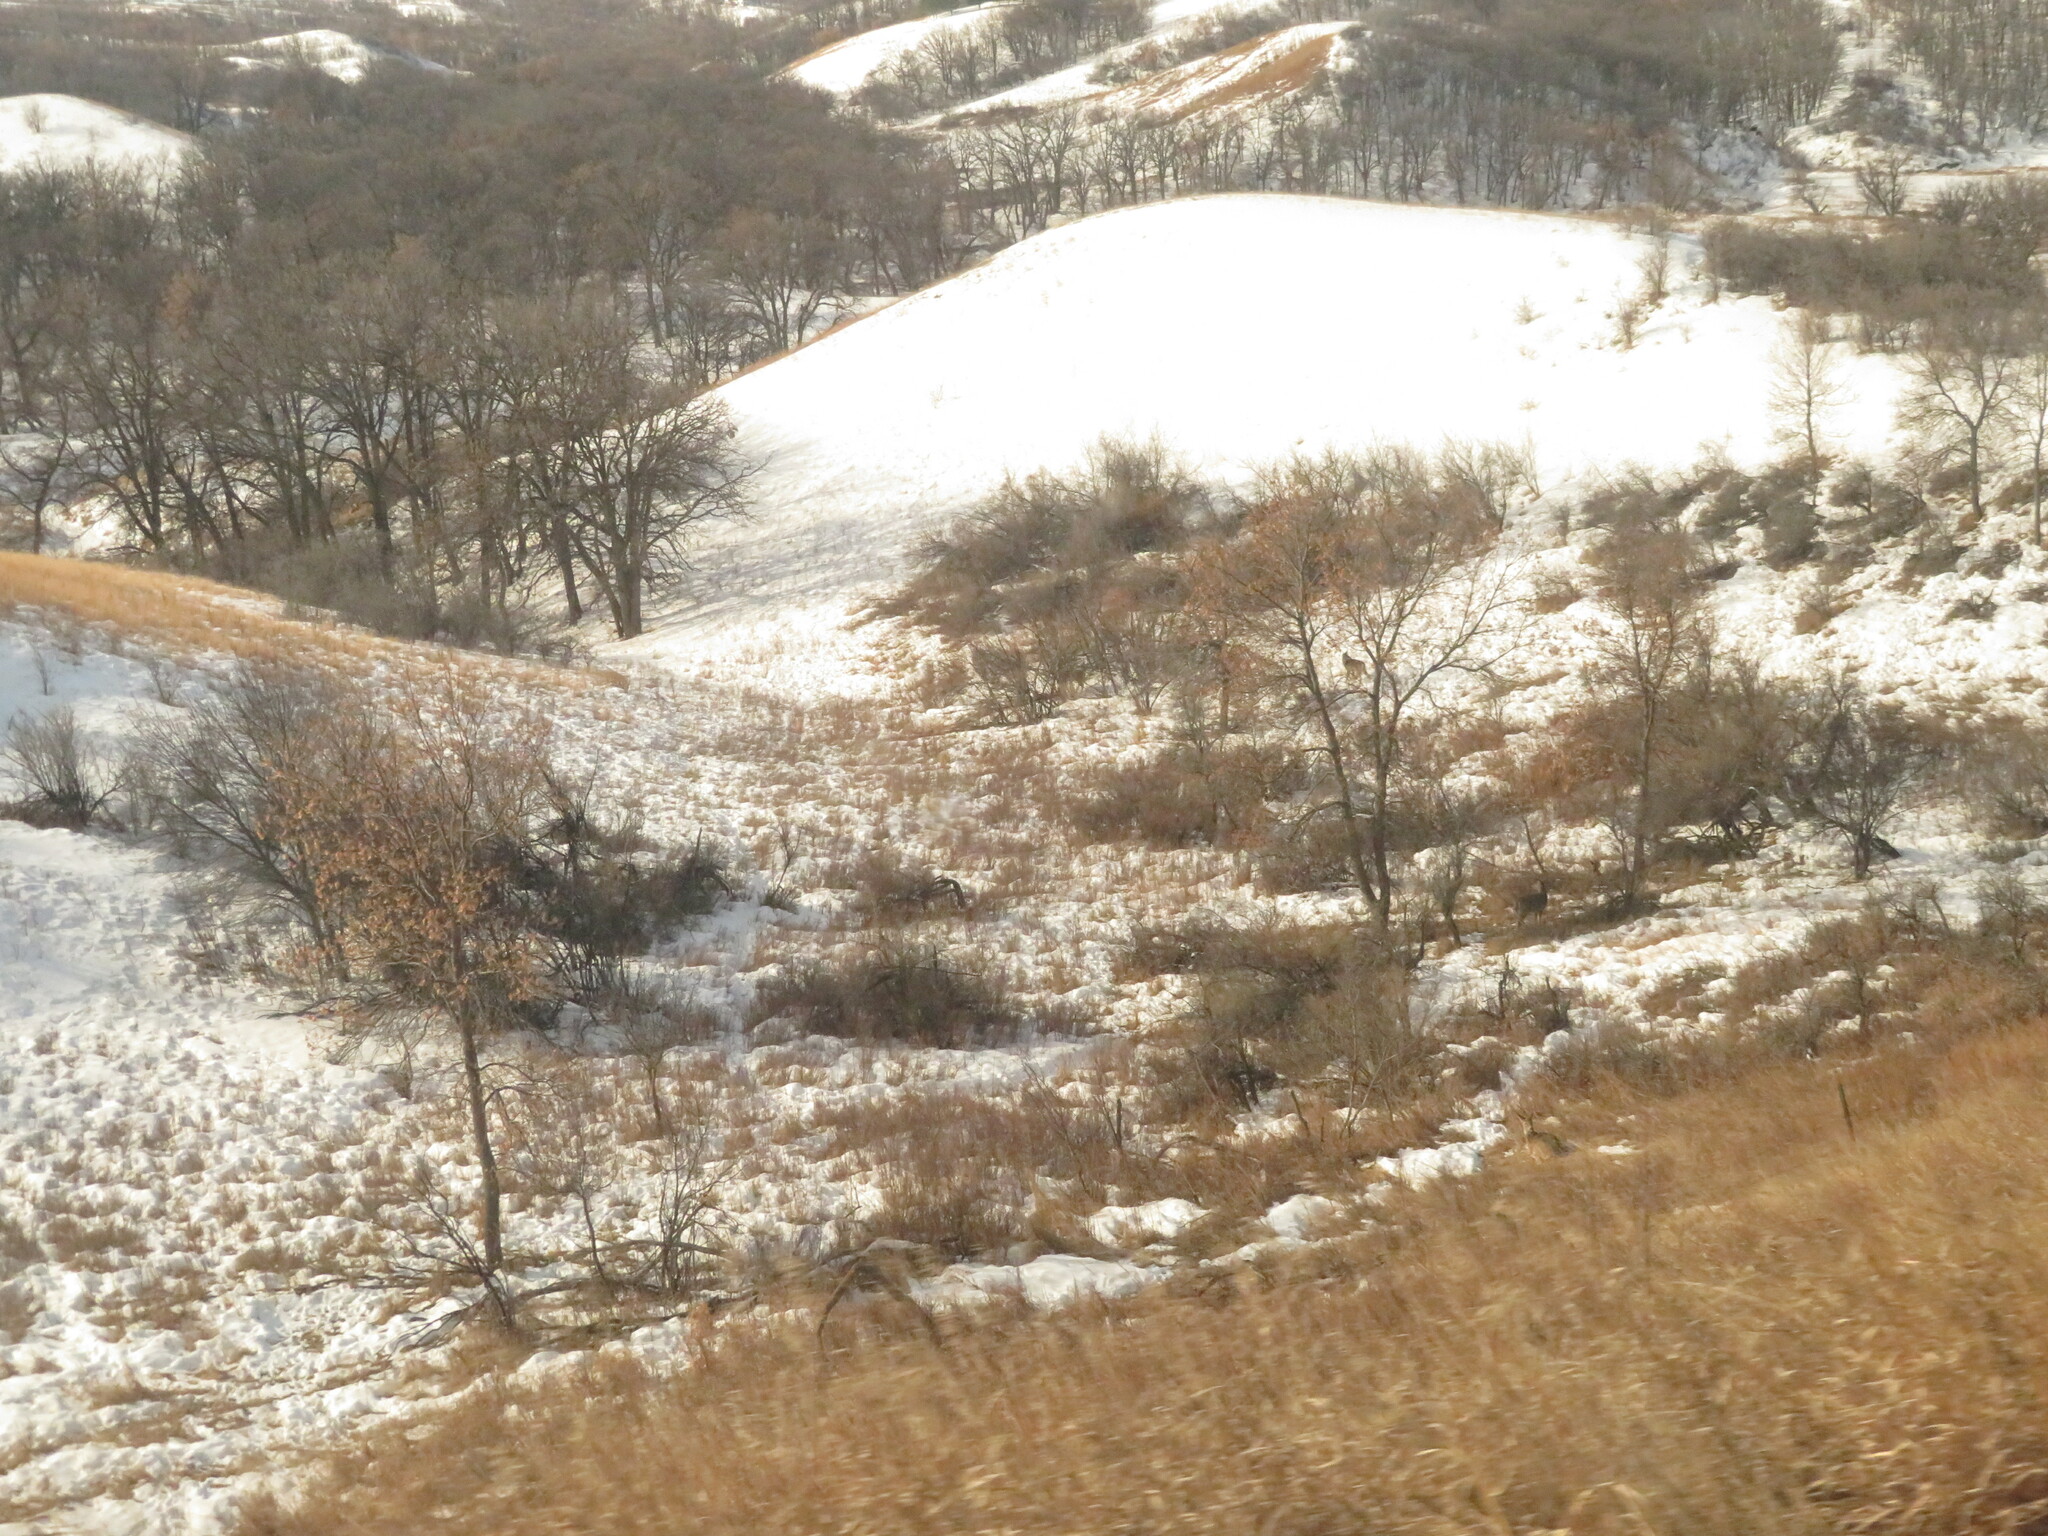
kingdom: Animalia
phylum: Chordata
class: Mammalia
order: Artiodactyla
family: Cervidae
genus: Odocoileus
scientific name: Odocoileus virginianus
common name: White-tailed deer
